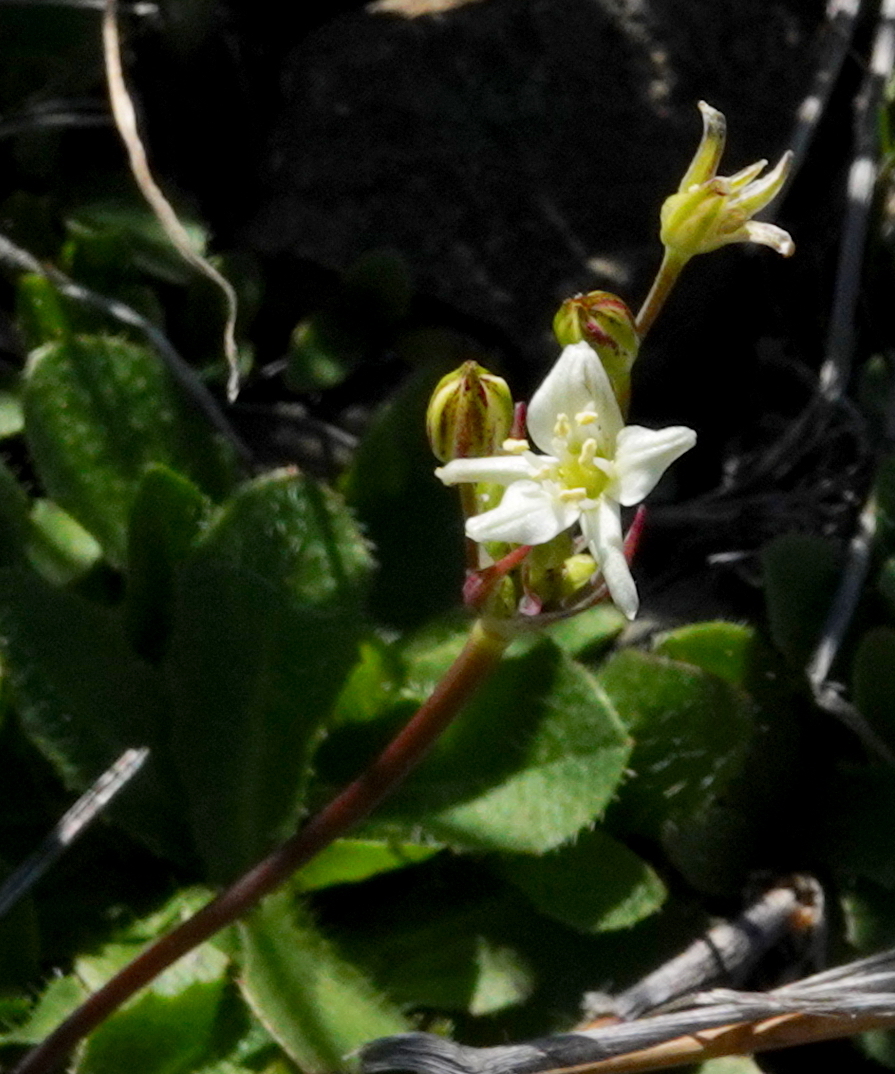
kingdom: Plantae
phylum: Tracheophyta
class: Liliopsida
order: Asparagales
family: Asparagaceae
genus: Muilla
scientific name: Muilla maritima
